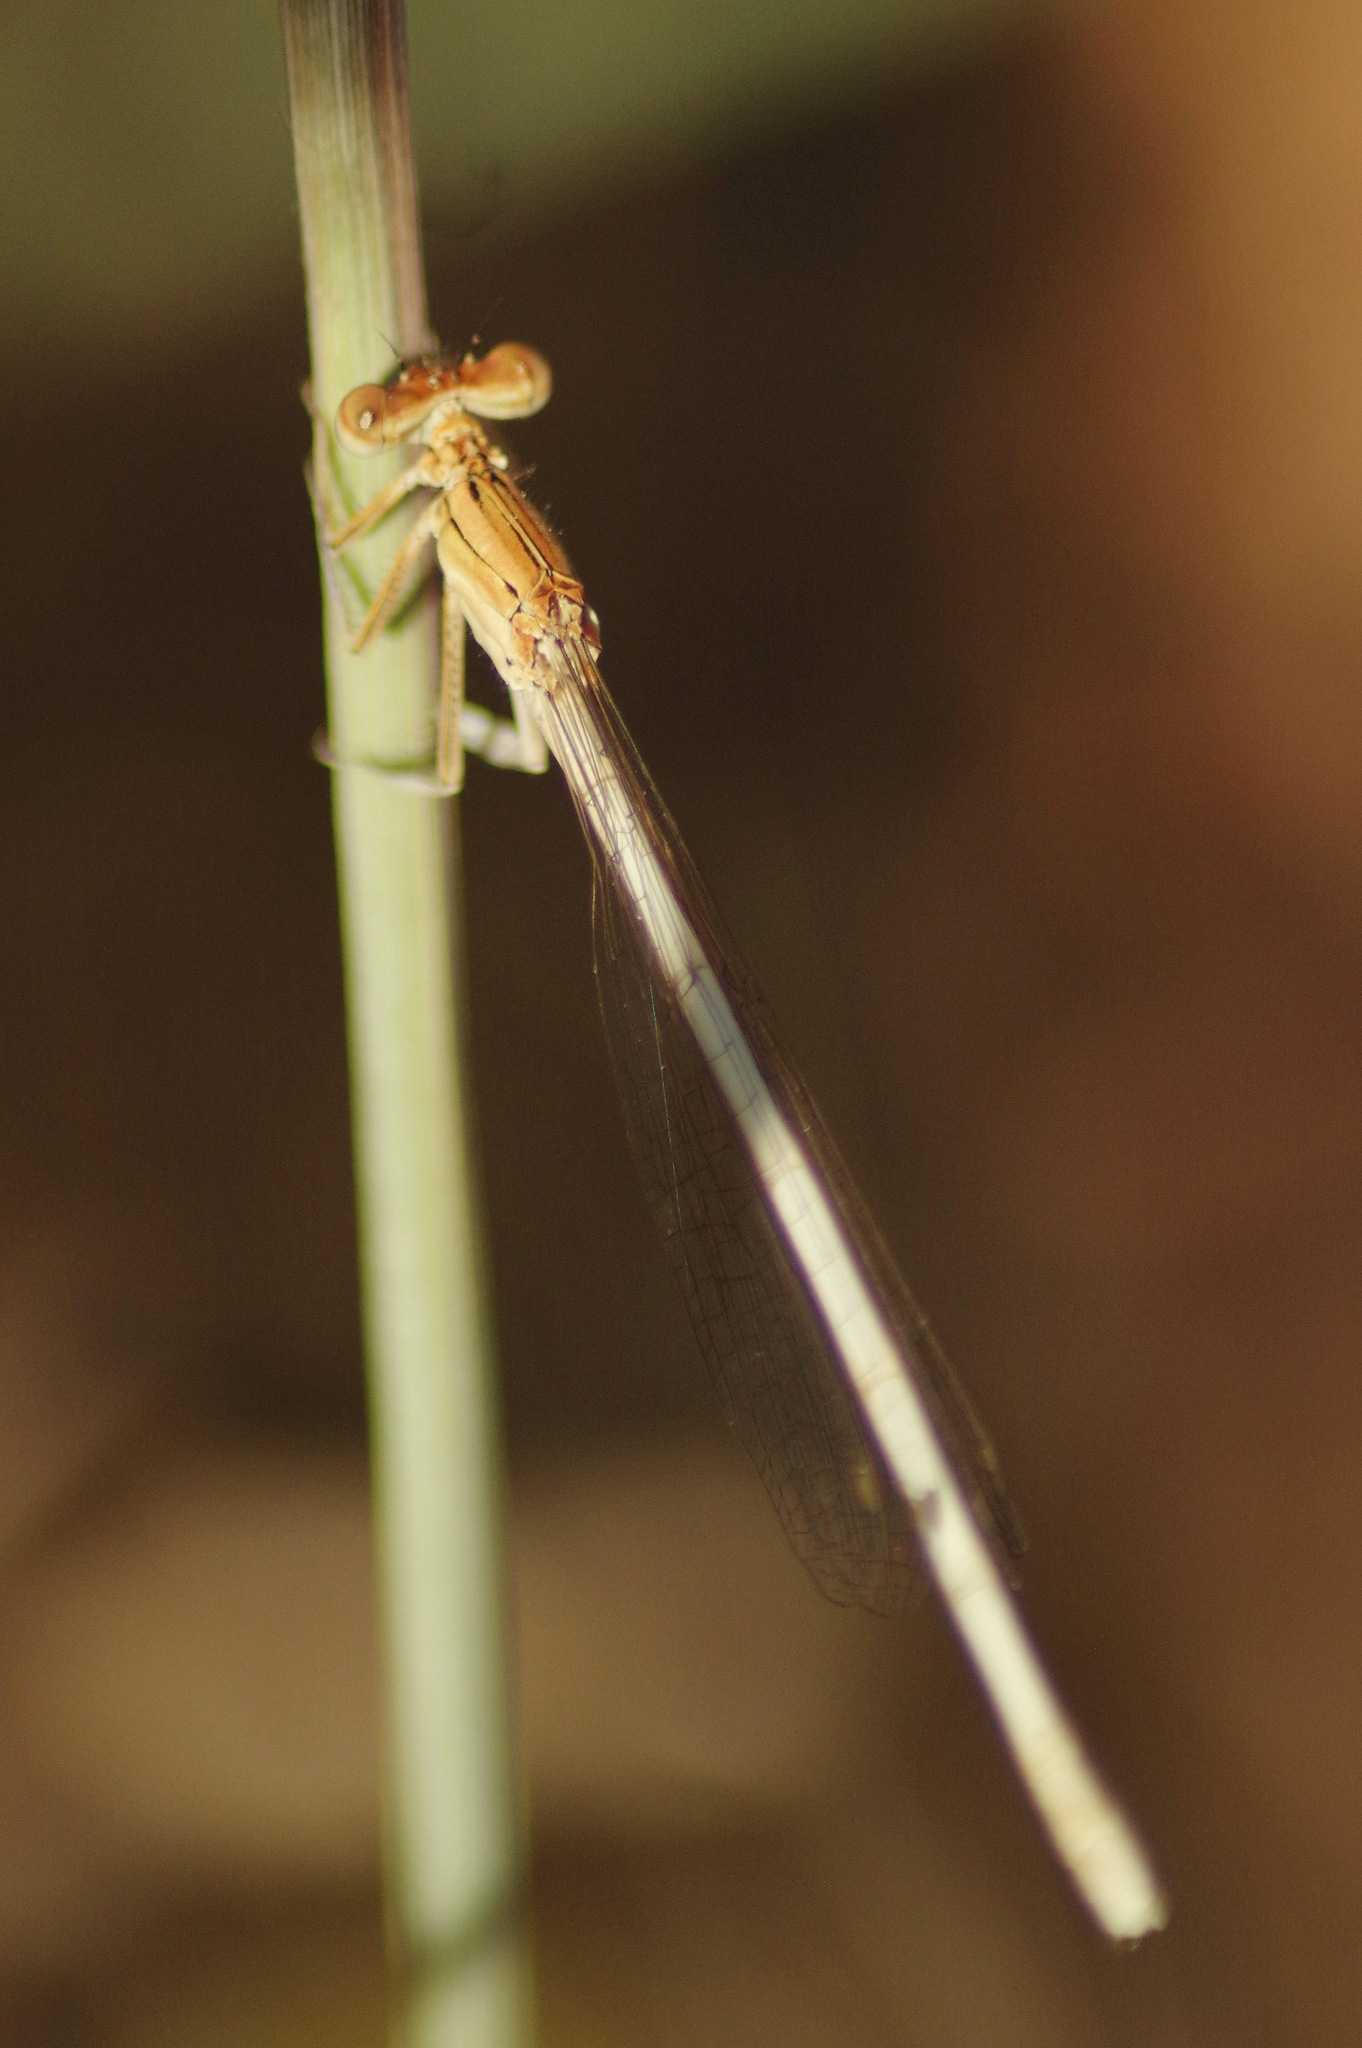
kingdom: Animalia
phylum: Arthropoda
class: Insecta
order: Odonata
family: Platycnemididae
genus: Platycnemis
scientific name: Platycnemis latipes
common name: White featherleg
